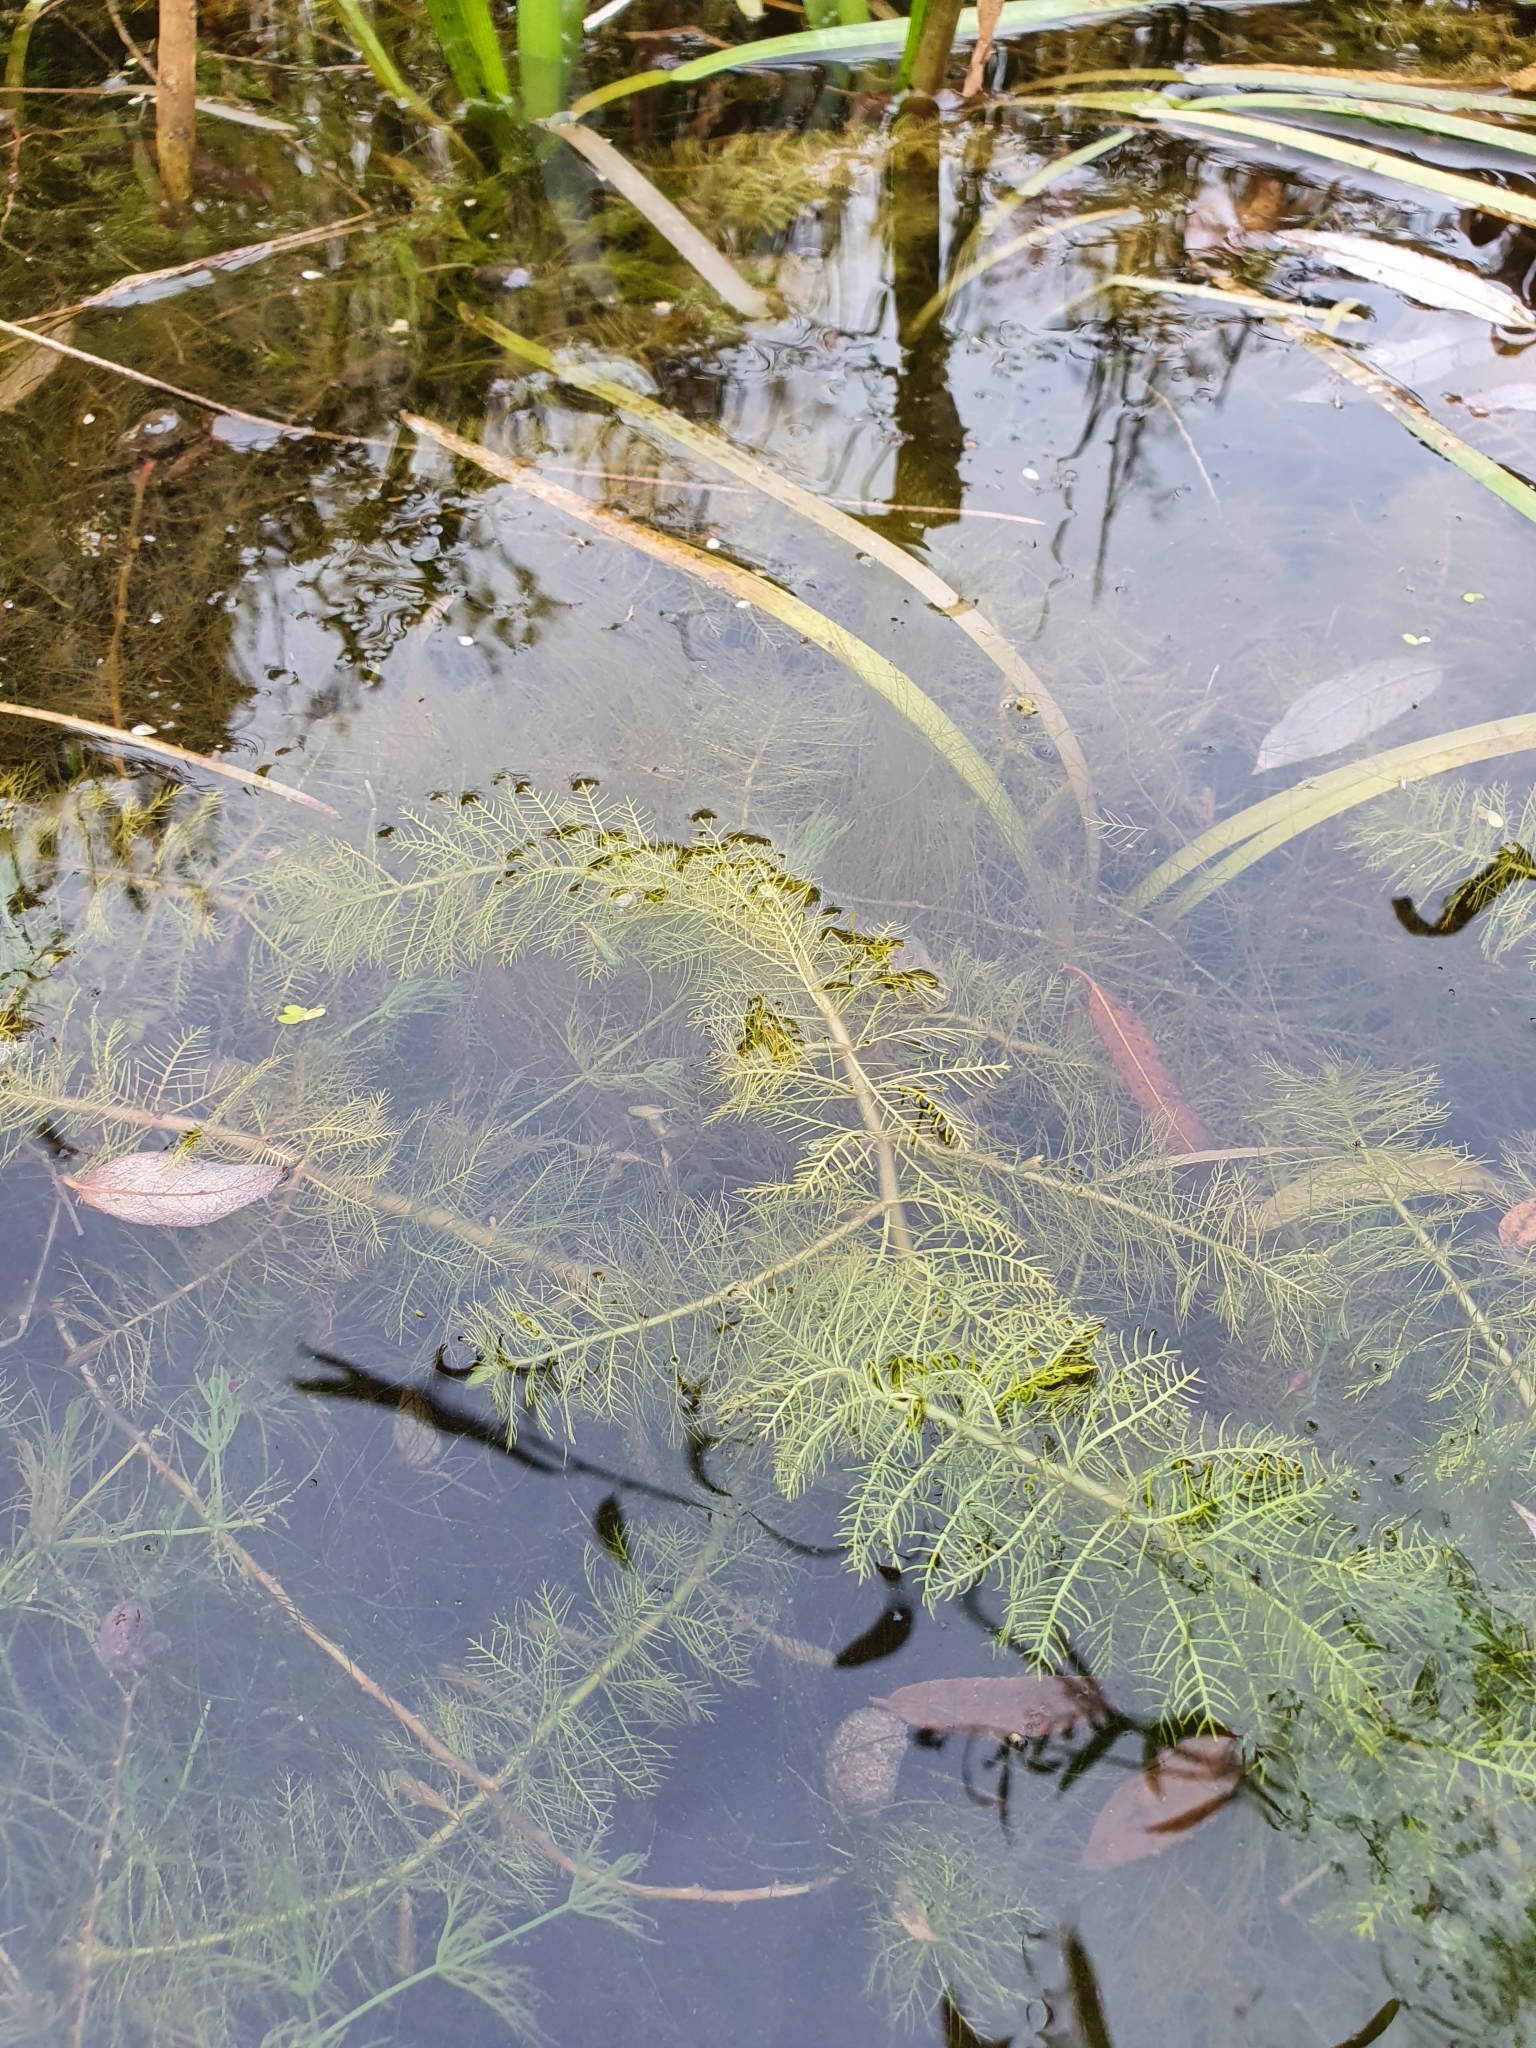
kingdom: Plantae
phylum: Tracheophyta
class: Magnoliopsida
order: Saxifragales
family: Haloragaceae
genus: Myriophyllum
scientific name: Myriophyllum verticillatum
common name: Whorled water-milfoil
